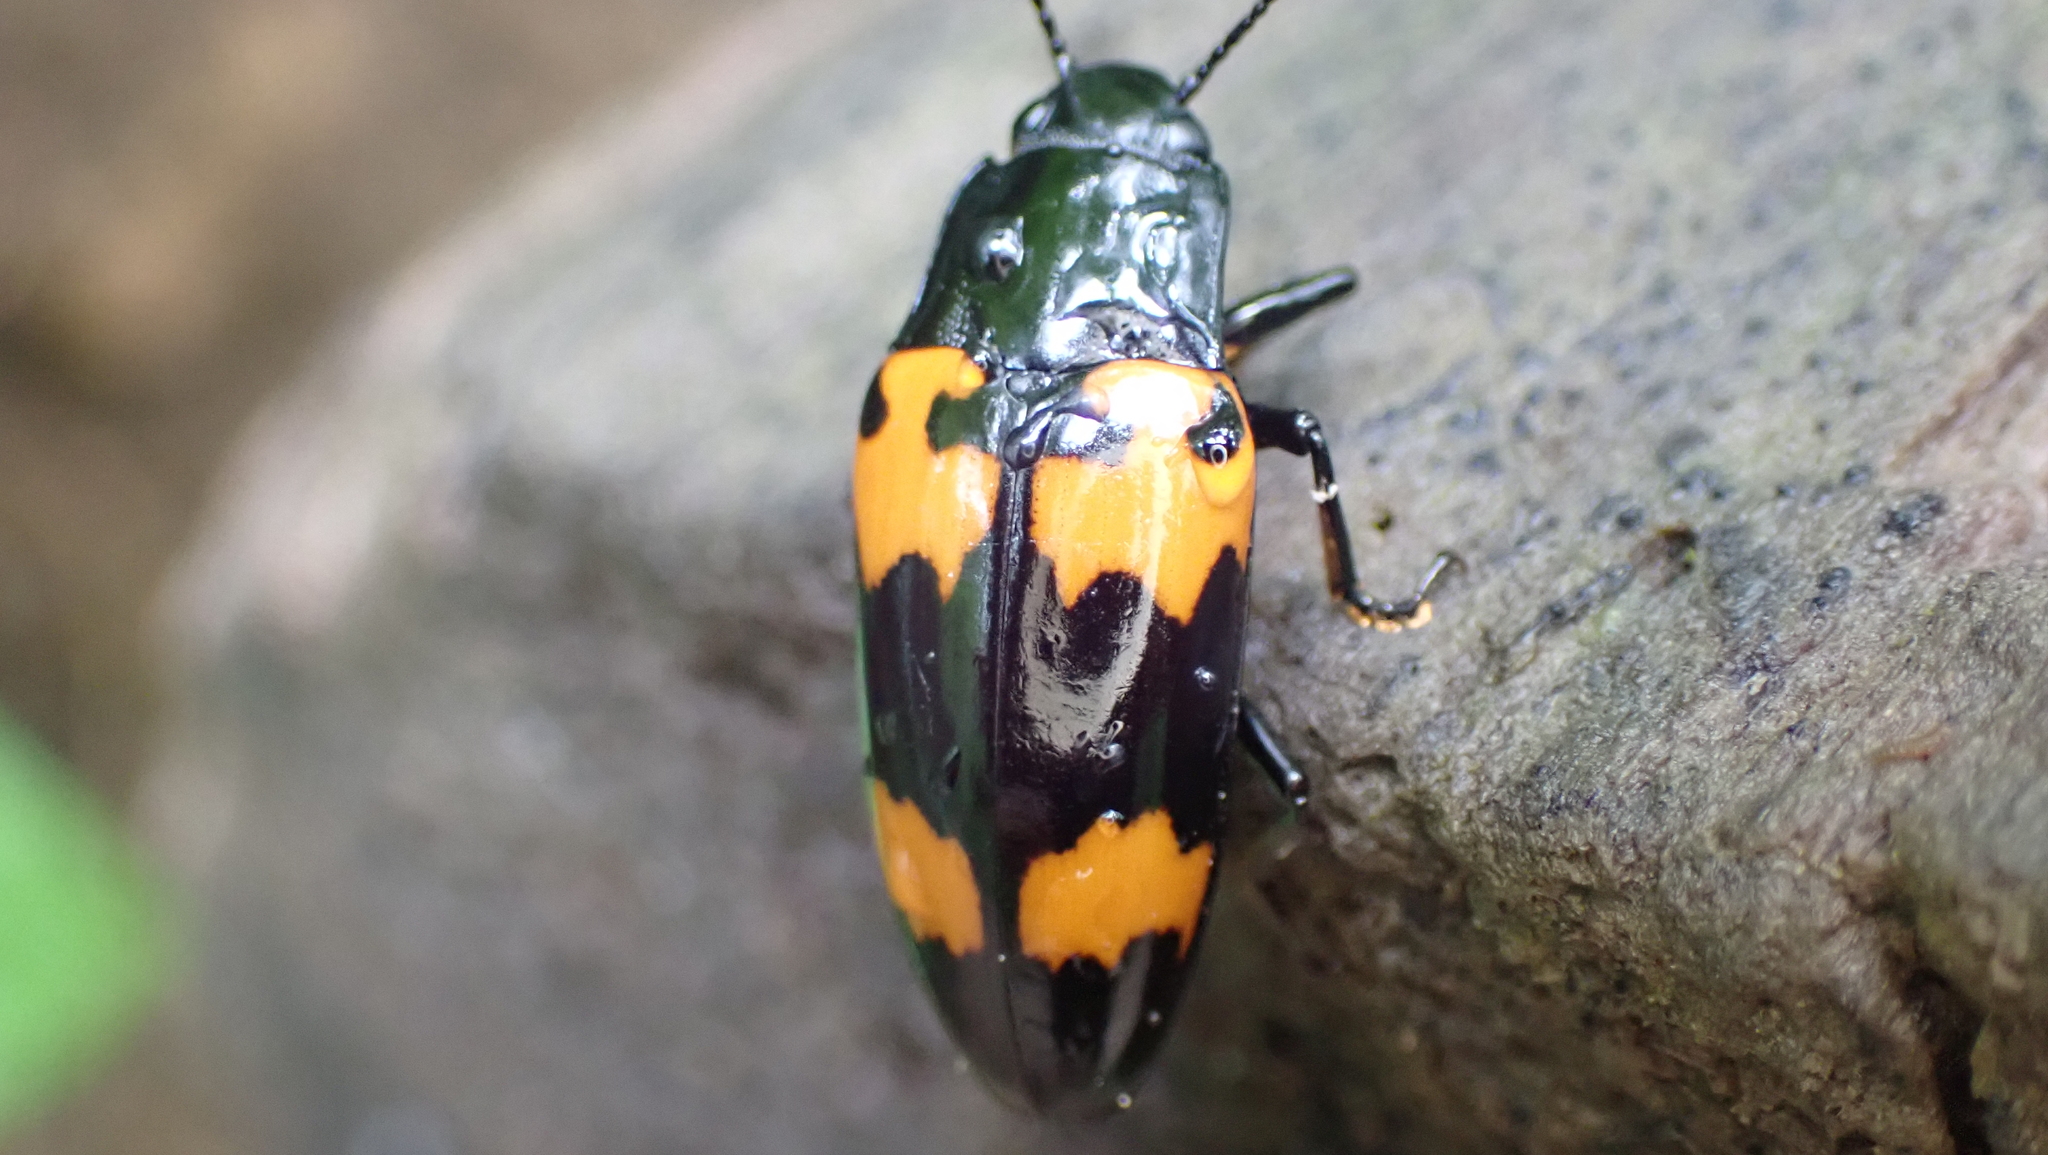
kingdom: Animalia
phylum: Arthropoda
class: Insecta
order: Coleoptera
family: Erotylidae
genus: Megalodacne
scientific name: Megalodacne heros
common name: Pleasing fungus beetle
